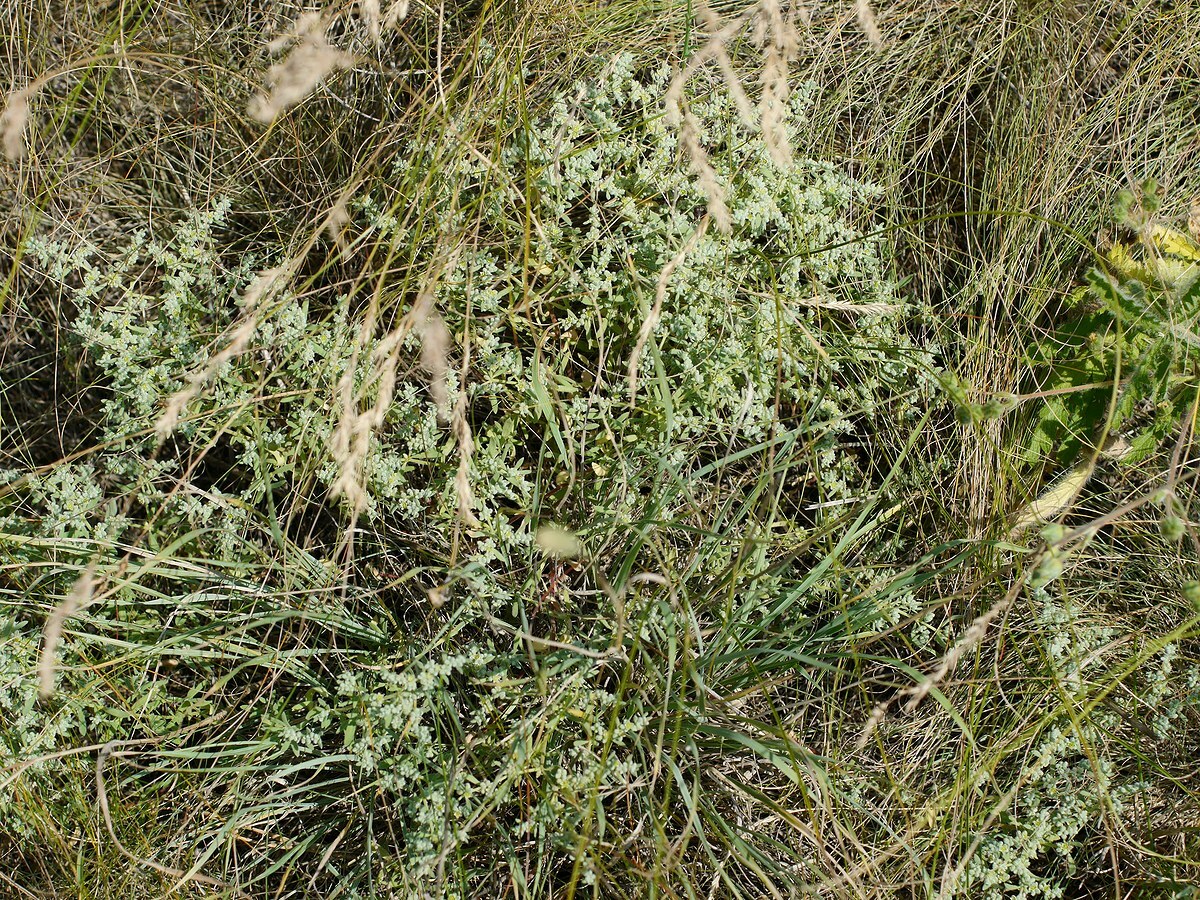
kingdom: Plantae
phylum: Tracheophyta
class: Magnoliopsida
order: Caryophyllales
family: Caryophyllaceae
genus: Herniaria
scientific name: Herniaria incana
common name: Gray rupturewort
